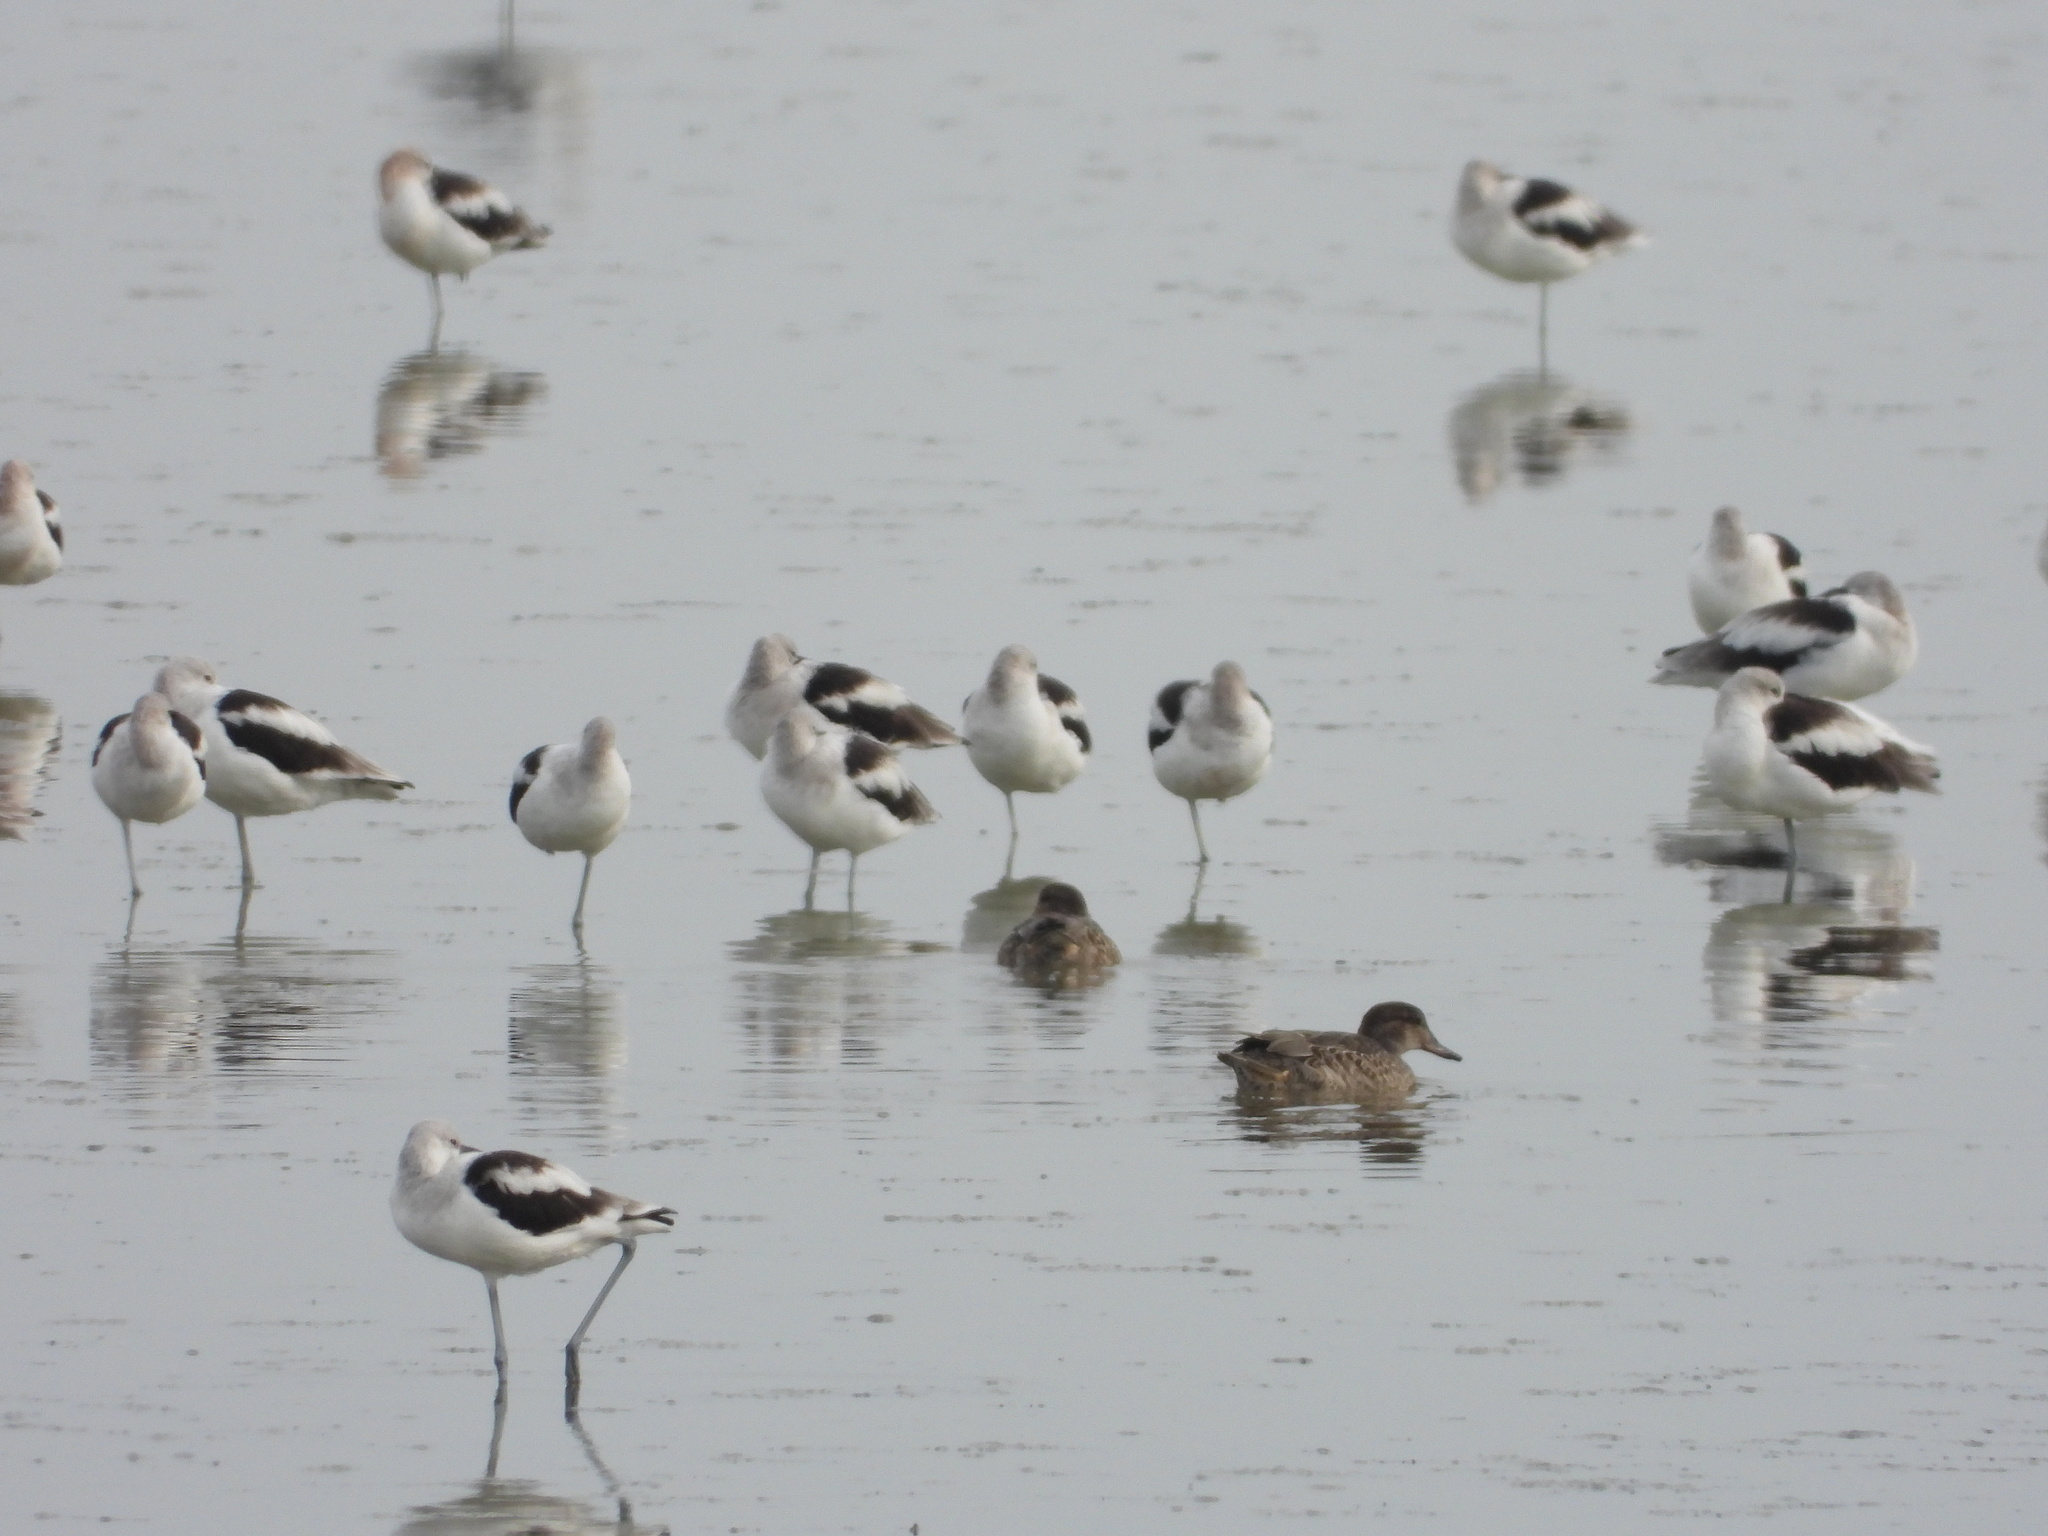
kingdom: Animalia
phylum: Chordata
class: Aves
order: Charadriiformes
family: Recurvirostridae
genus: Recurvirostra
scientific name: Recurvirostra americana
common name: American avocet
